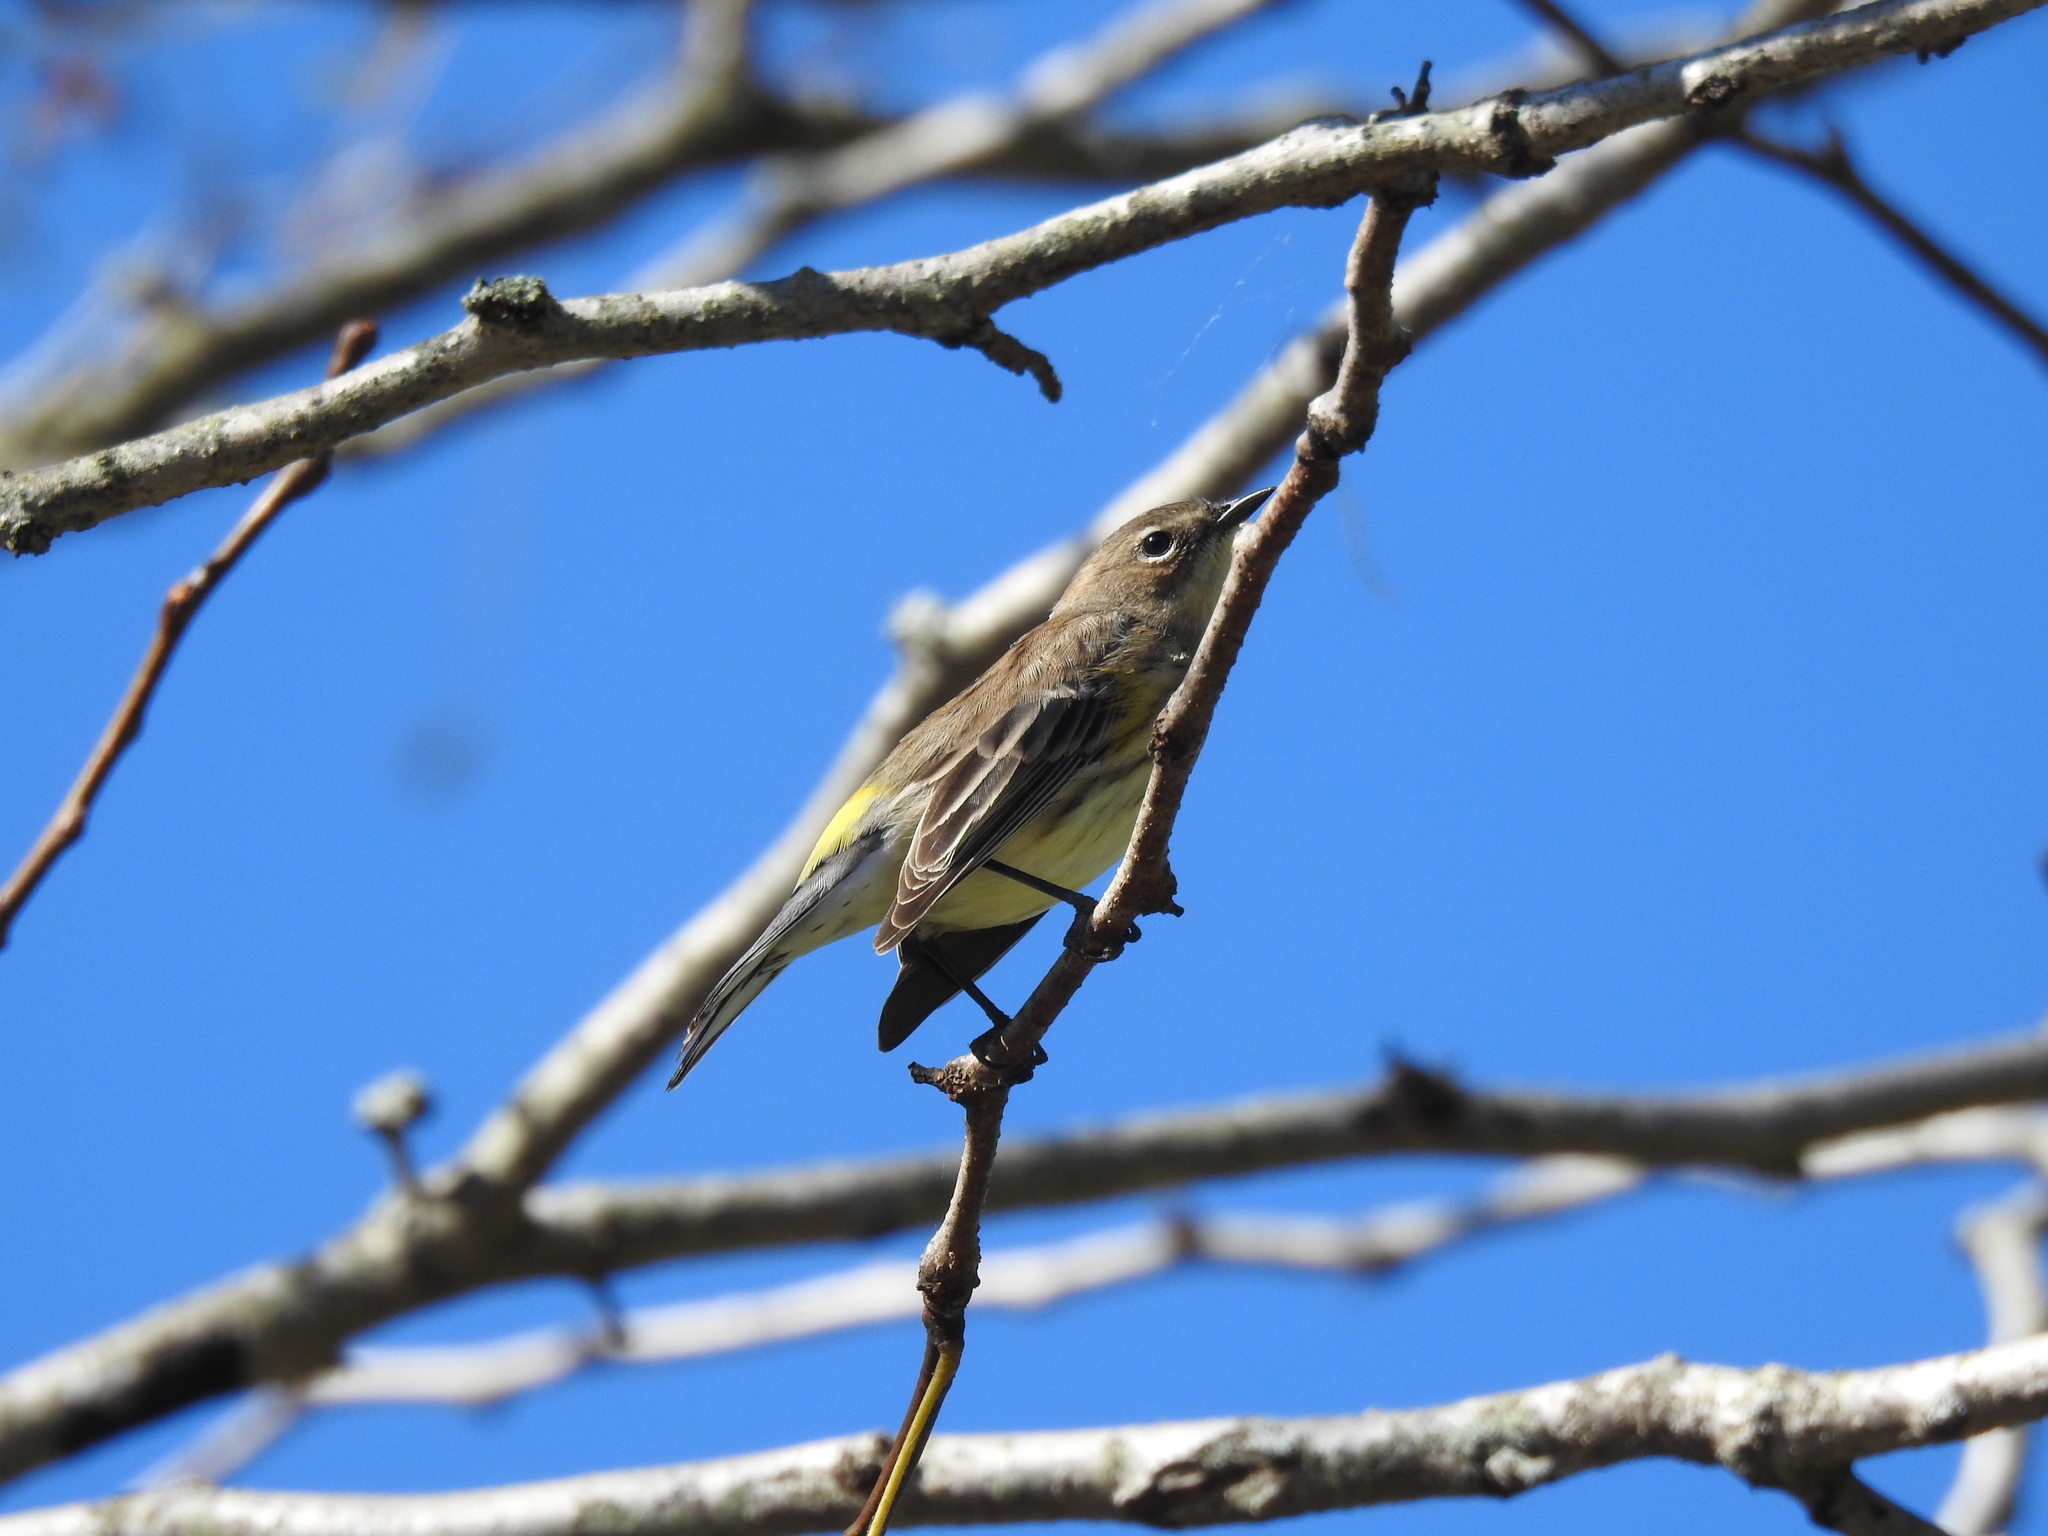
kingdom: Animalia
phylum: Chordata
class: Aves
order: Passeriformes
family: Parulidae
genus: Setophaga
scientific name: Setophaga coronata
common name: Myrtle warbler
